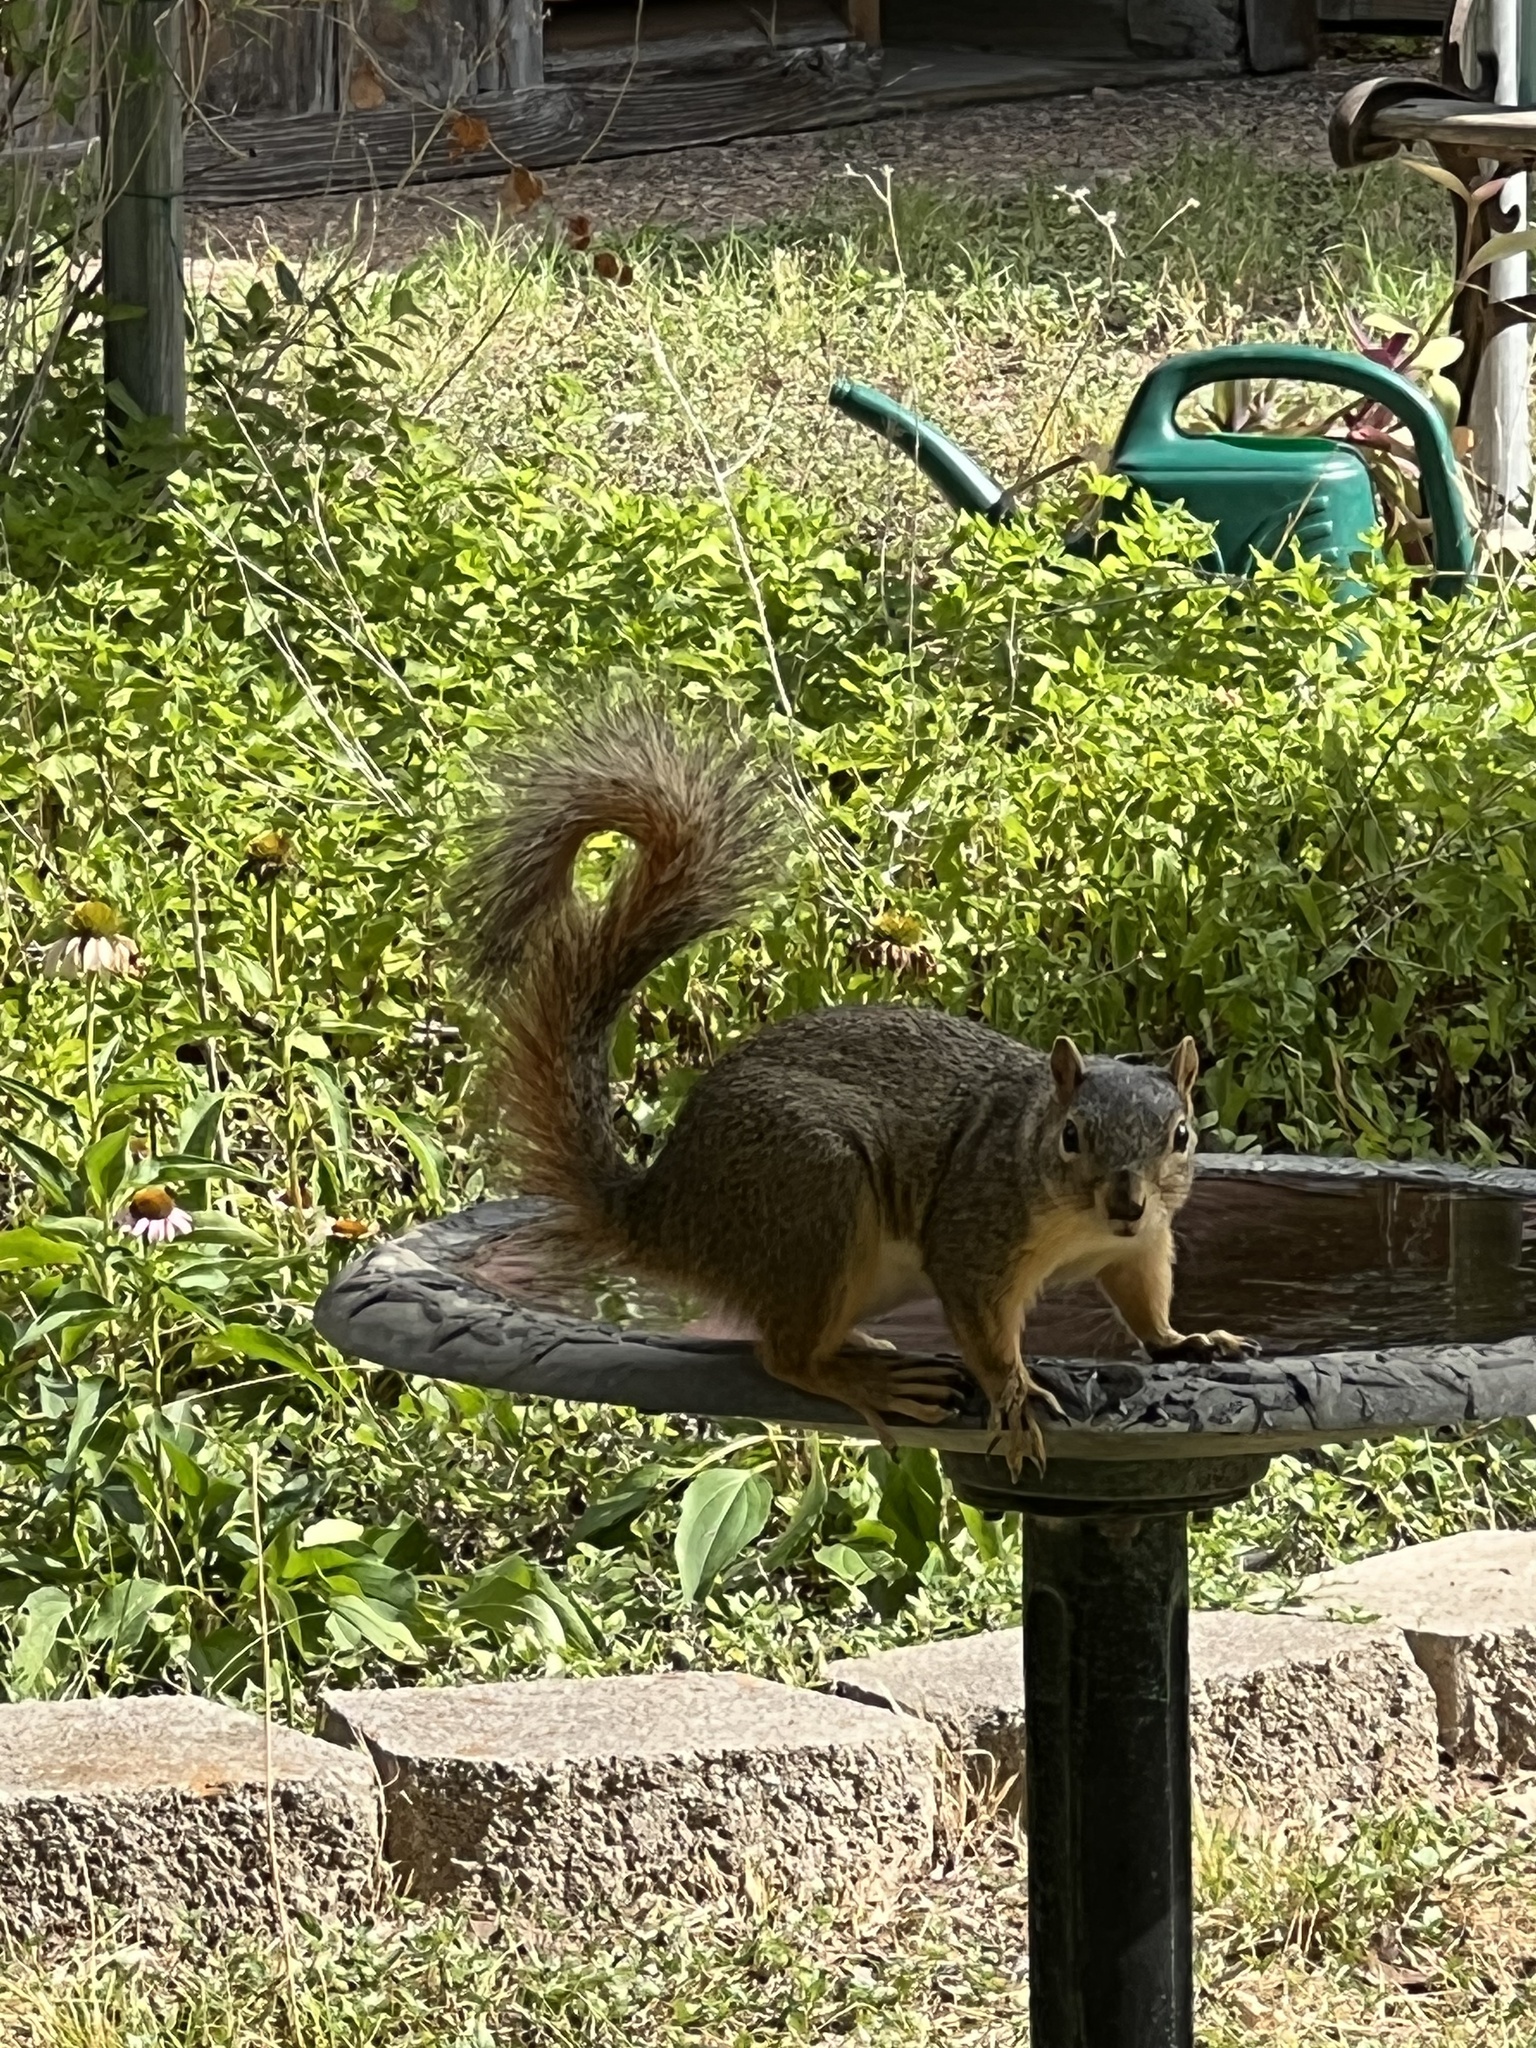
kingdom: Animalia
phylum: Chordata
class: Mammalia
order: Rodentia
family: Sciuridae
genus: Sciurus
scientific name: Sciurus niger
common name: Fox squirrel
